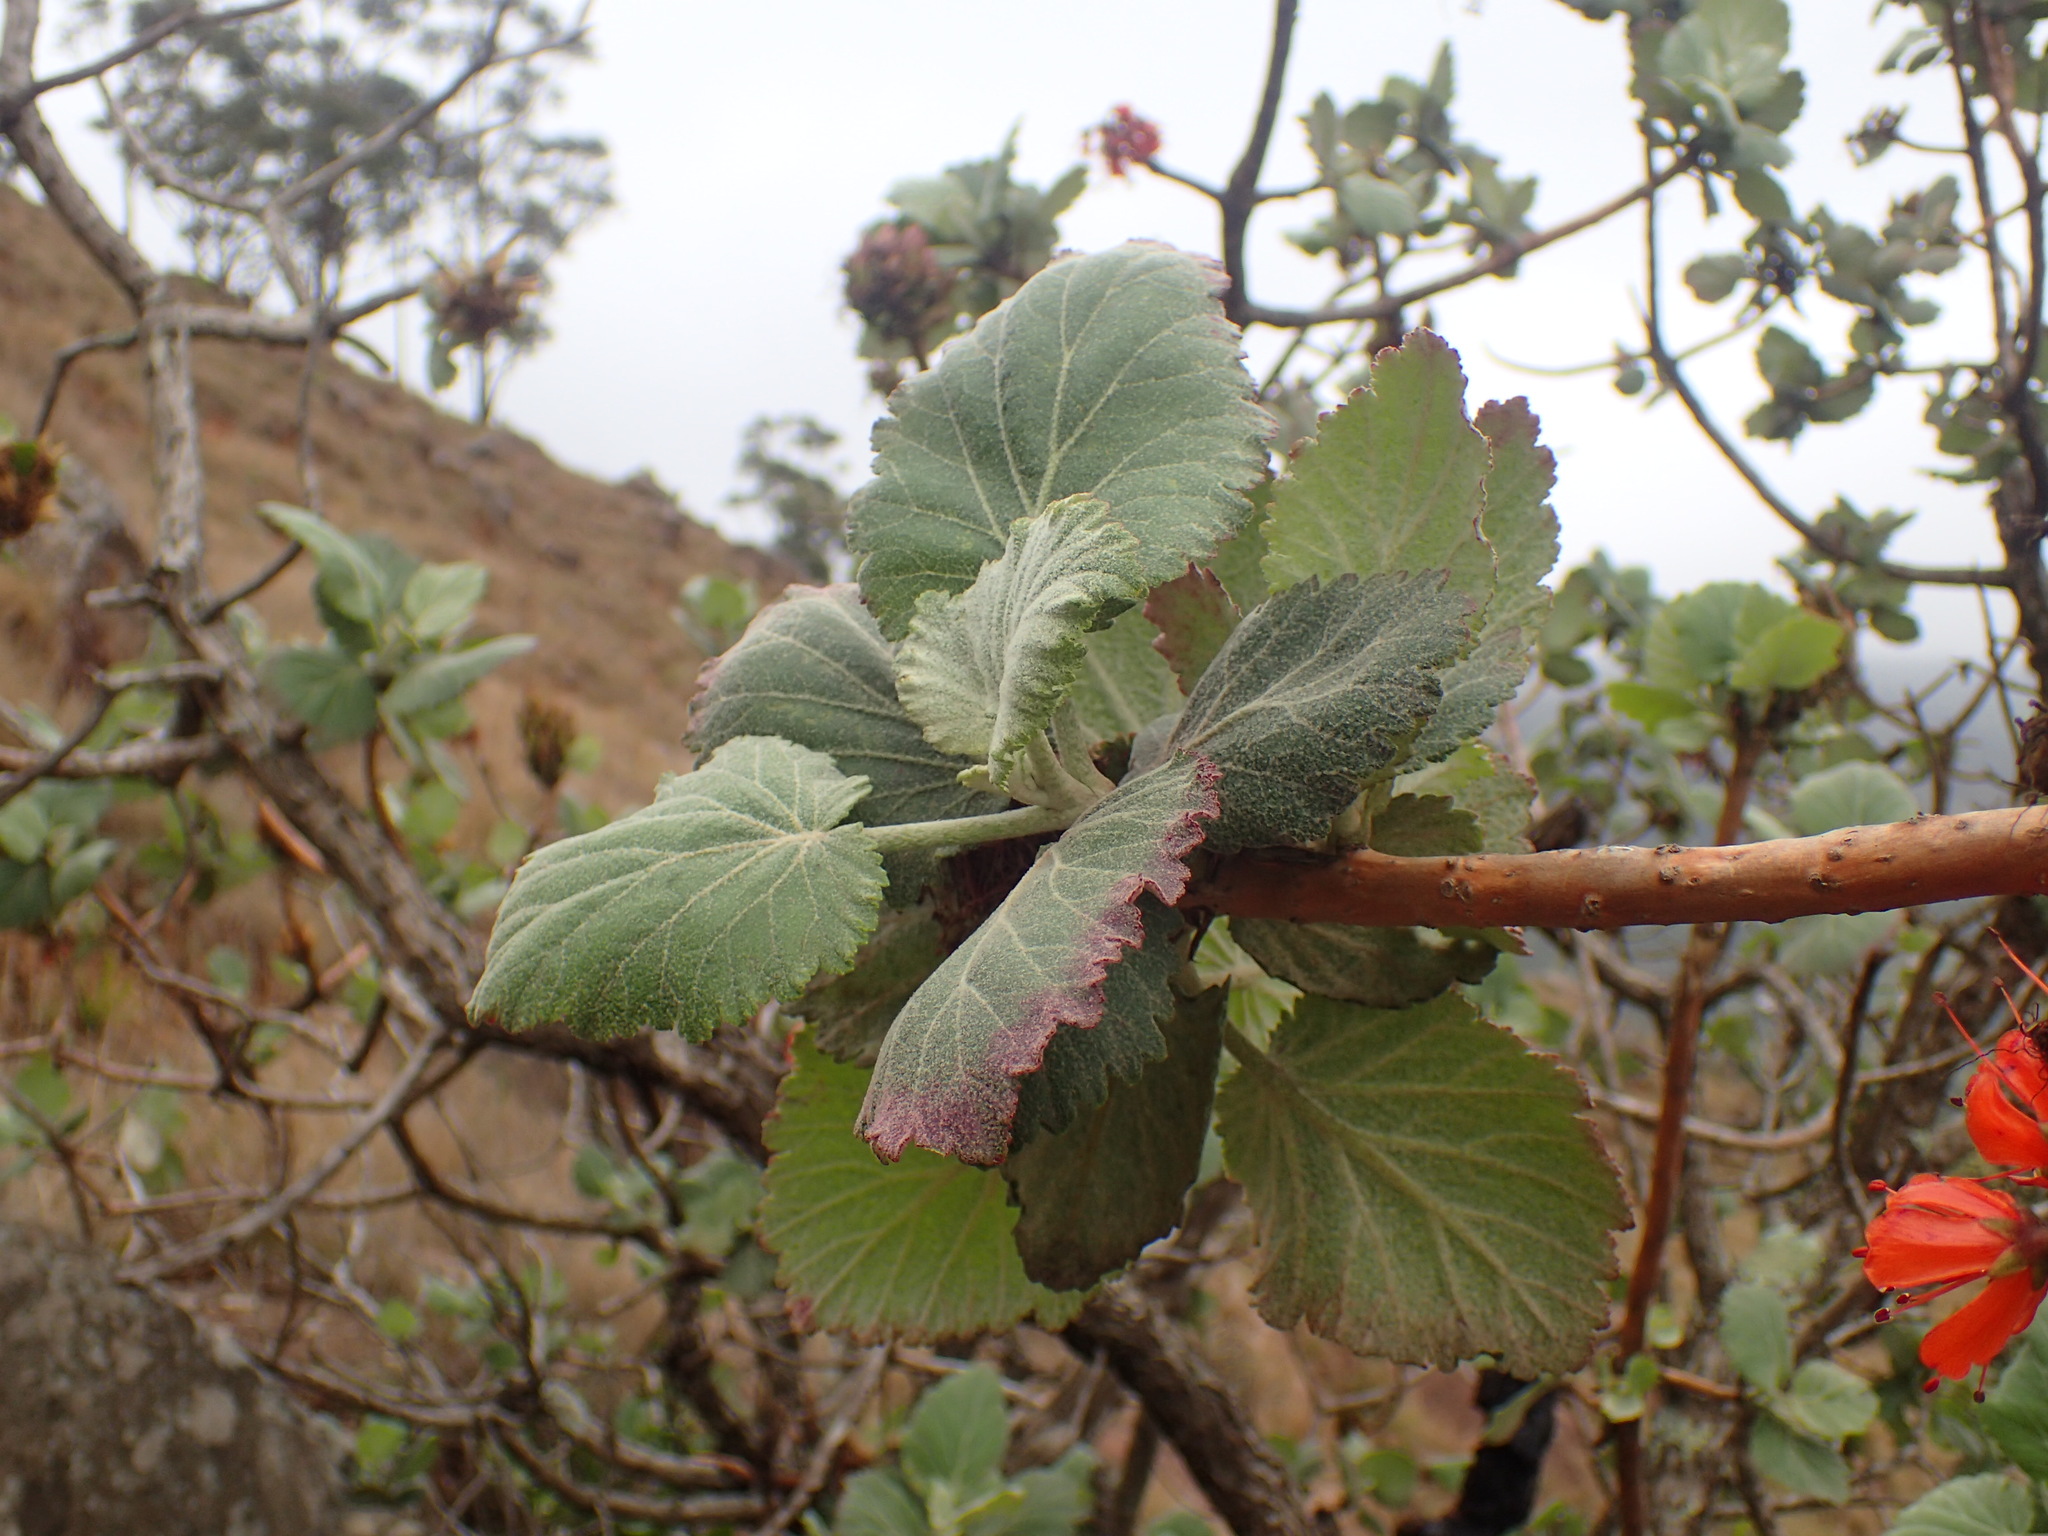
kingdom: Plantae
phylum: Tracheophyta
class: Magnoliopsida
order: Geraniales
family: Francoaceae
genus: Greyia
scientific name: Greyia radlkoferi
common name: Natal bottlebrush
